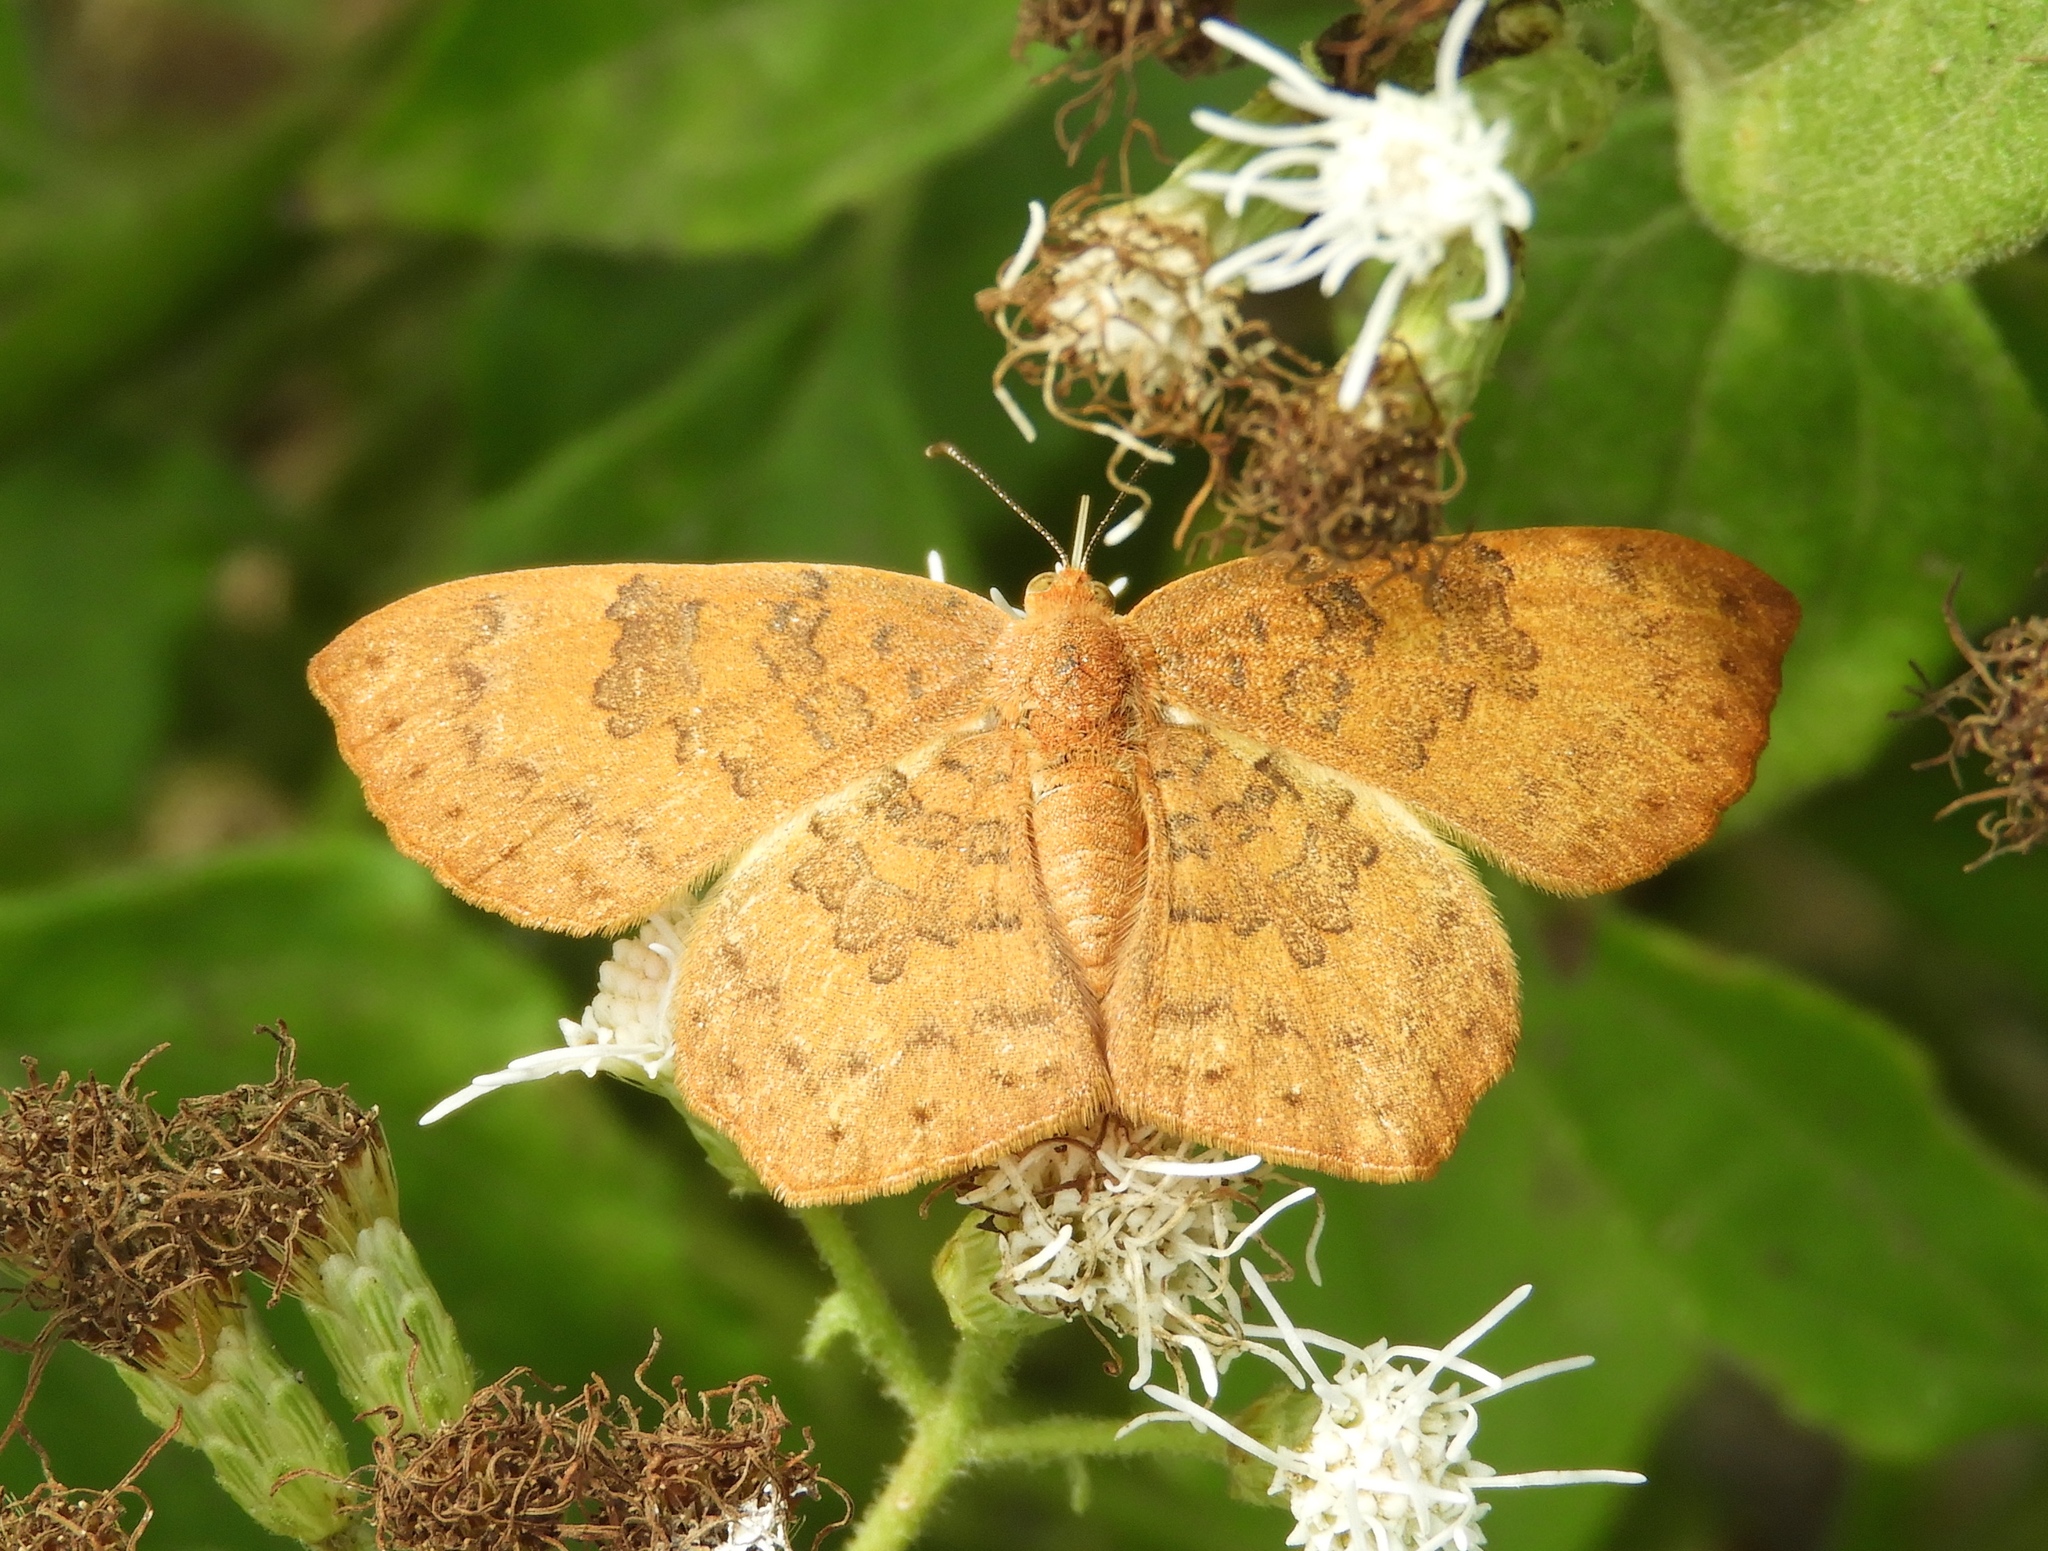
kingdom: Animalia
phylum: Arthropoda
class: Insecta
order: Lepidoptera
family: Lycaenidae
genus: Emesis
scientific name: Emesis
